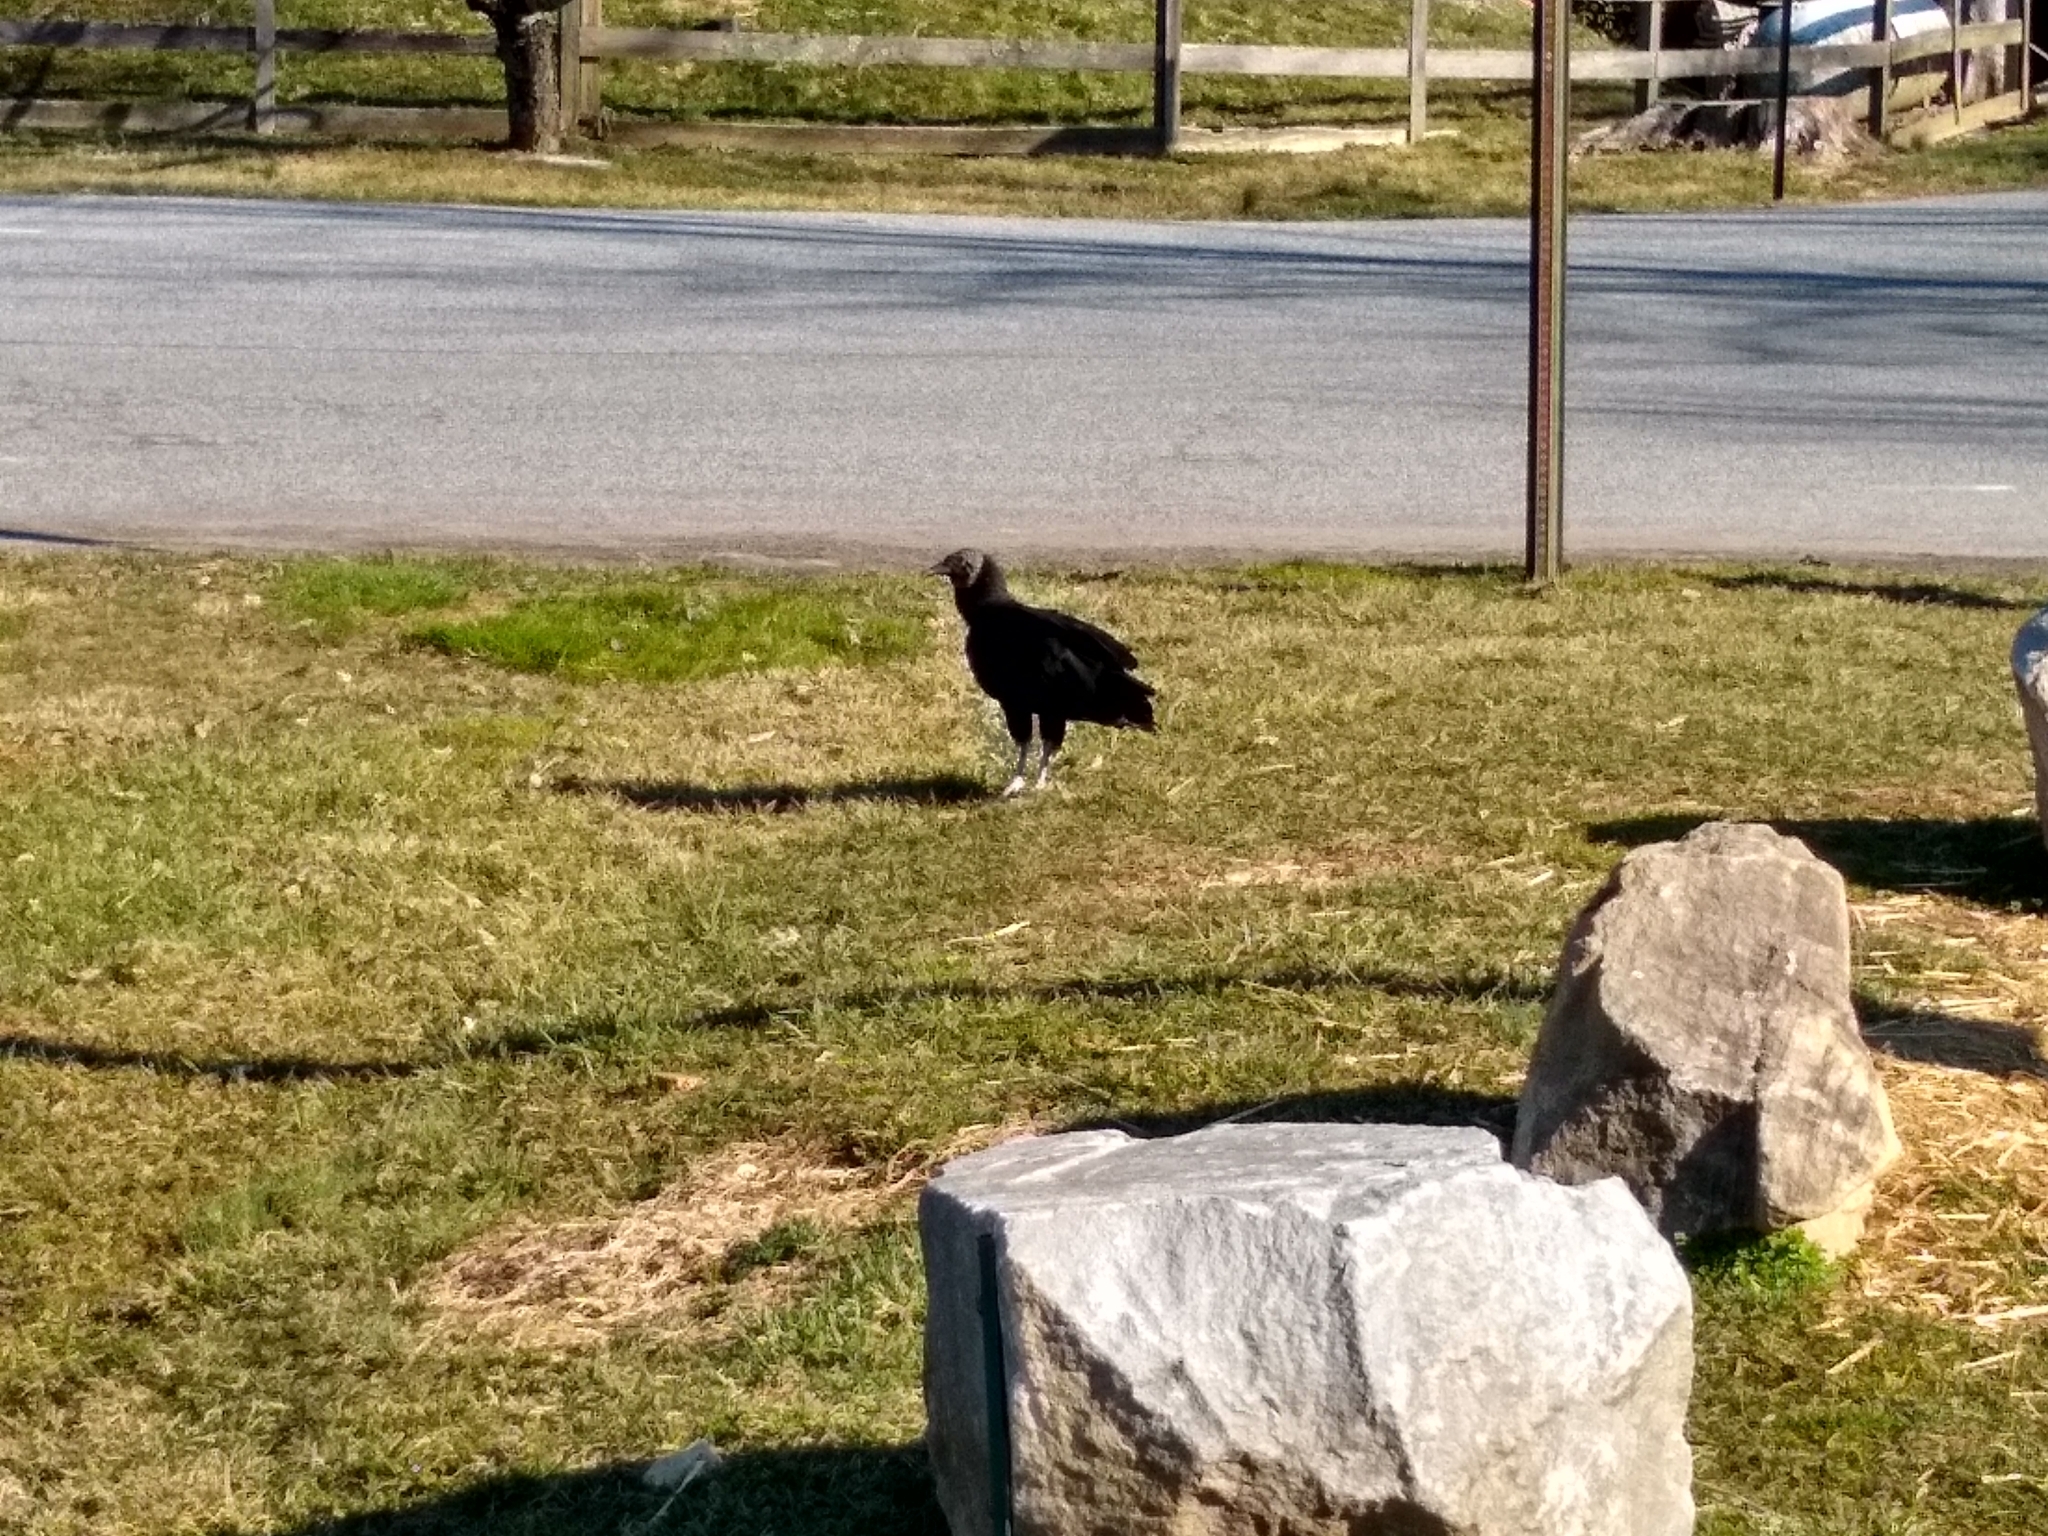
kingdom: Animalia
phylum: Chordata
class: Aves
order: Accipitriformes
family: Cathartidae
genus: Coragyps
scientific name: Coragyps atratus
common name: Black vulture
